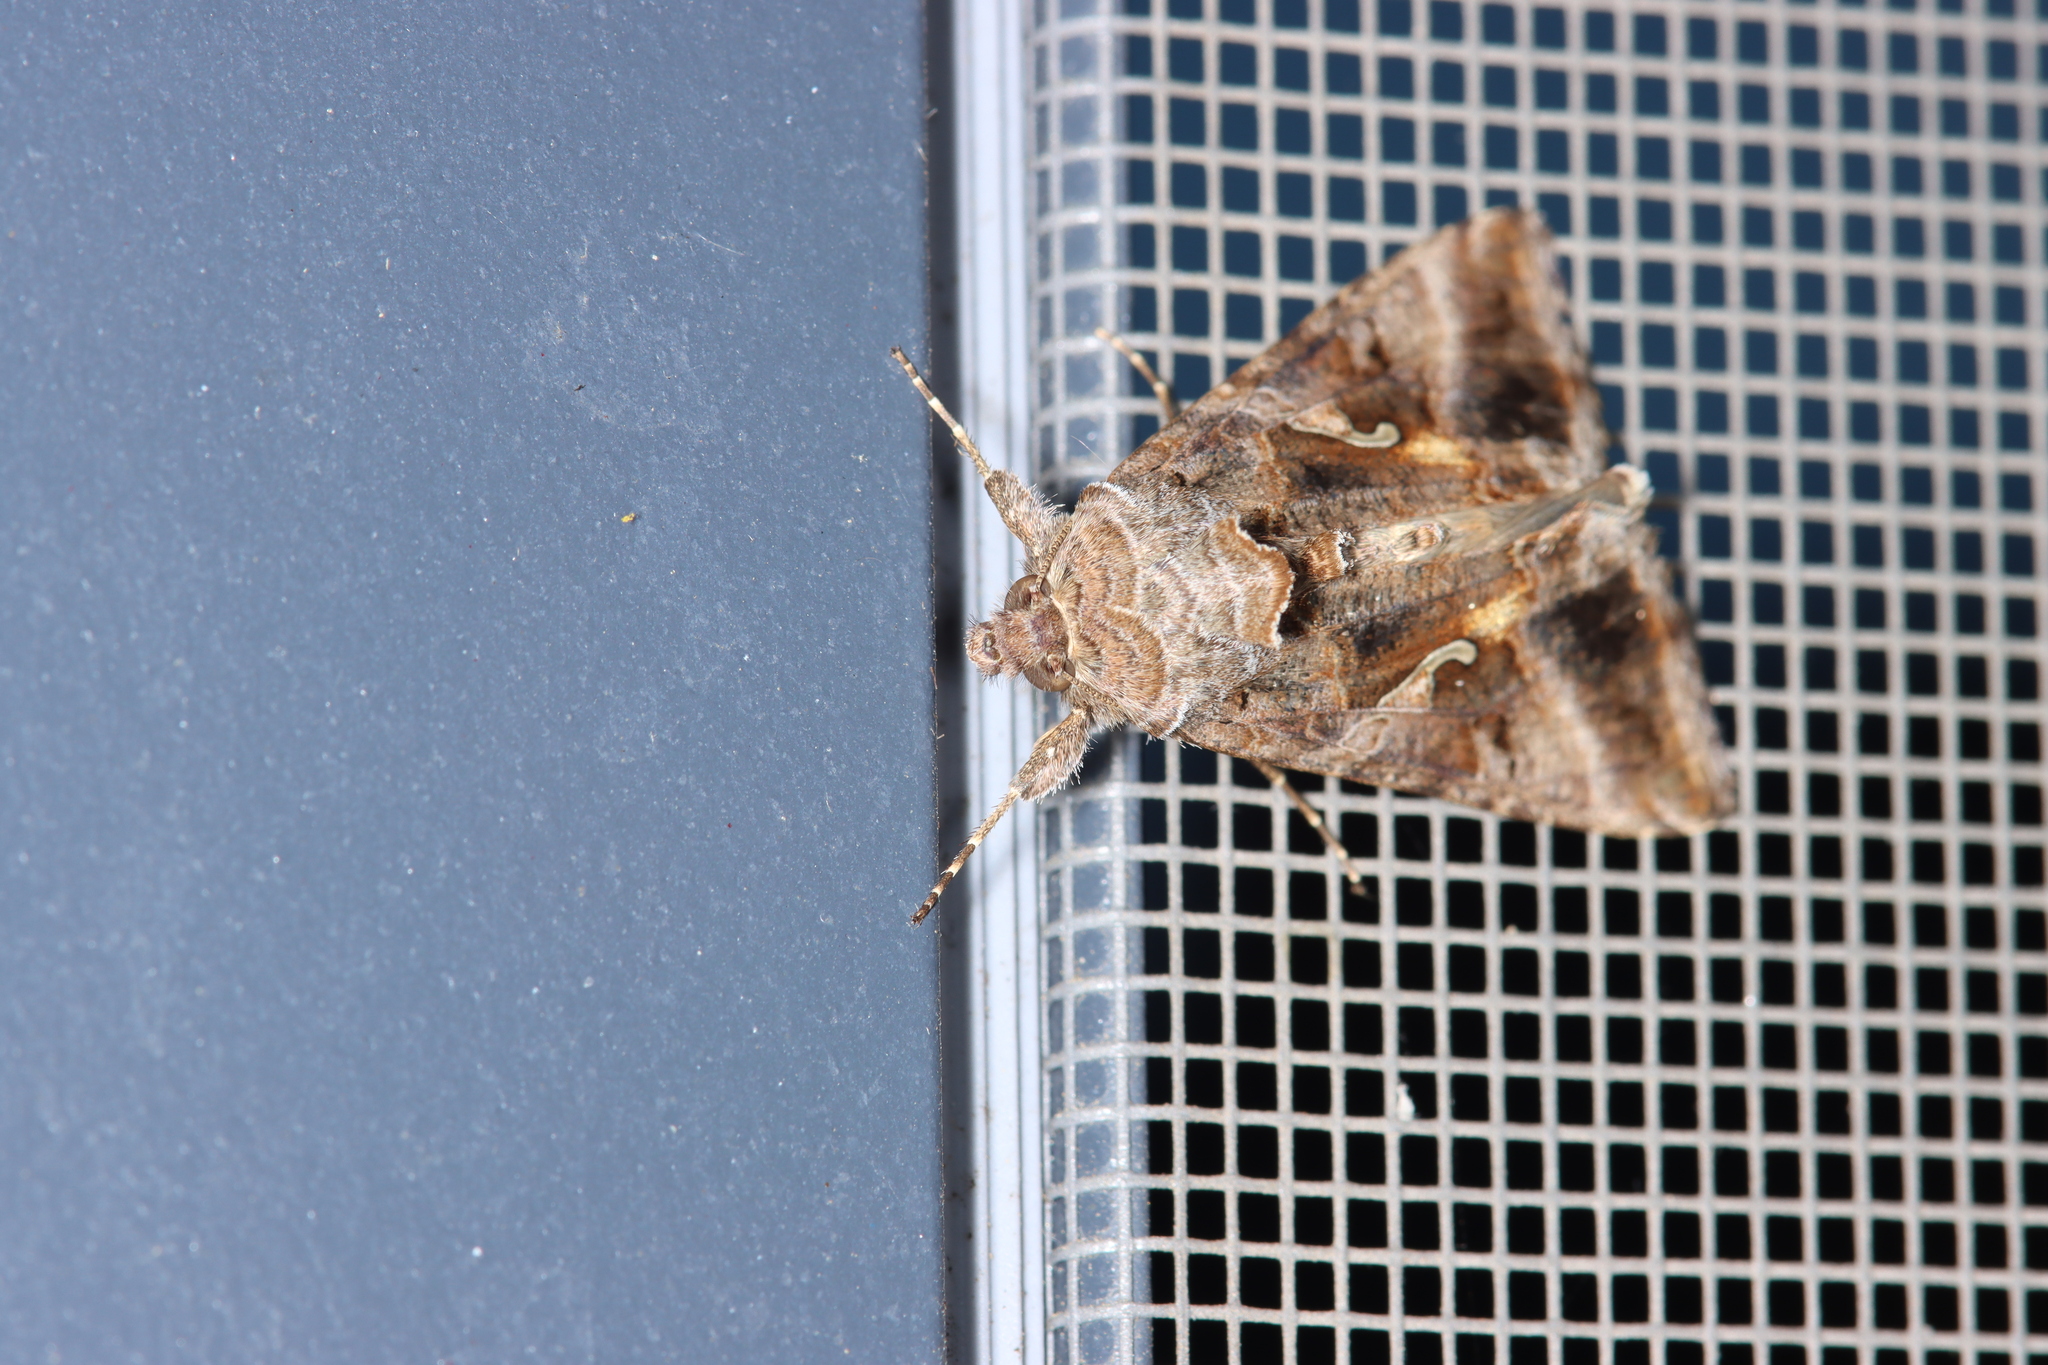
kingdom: Animalia
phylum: Arthropoda
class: Insecta
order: Lepidoptera
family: Noctuidae
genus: Autographa
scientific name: Autographa gamma
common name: Silver y
